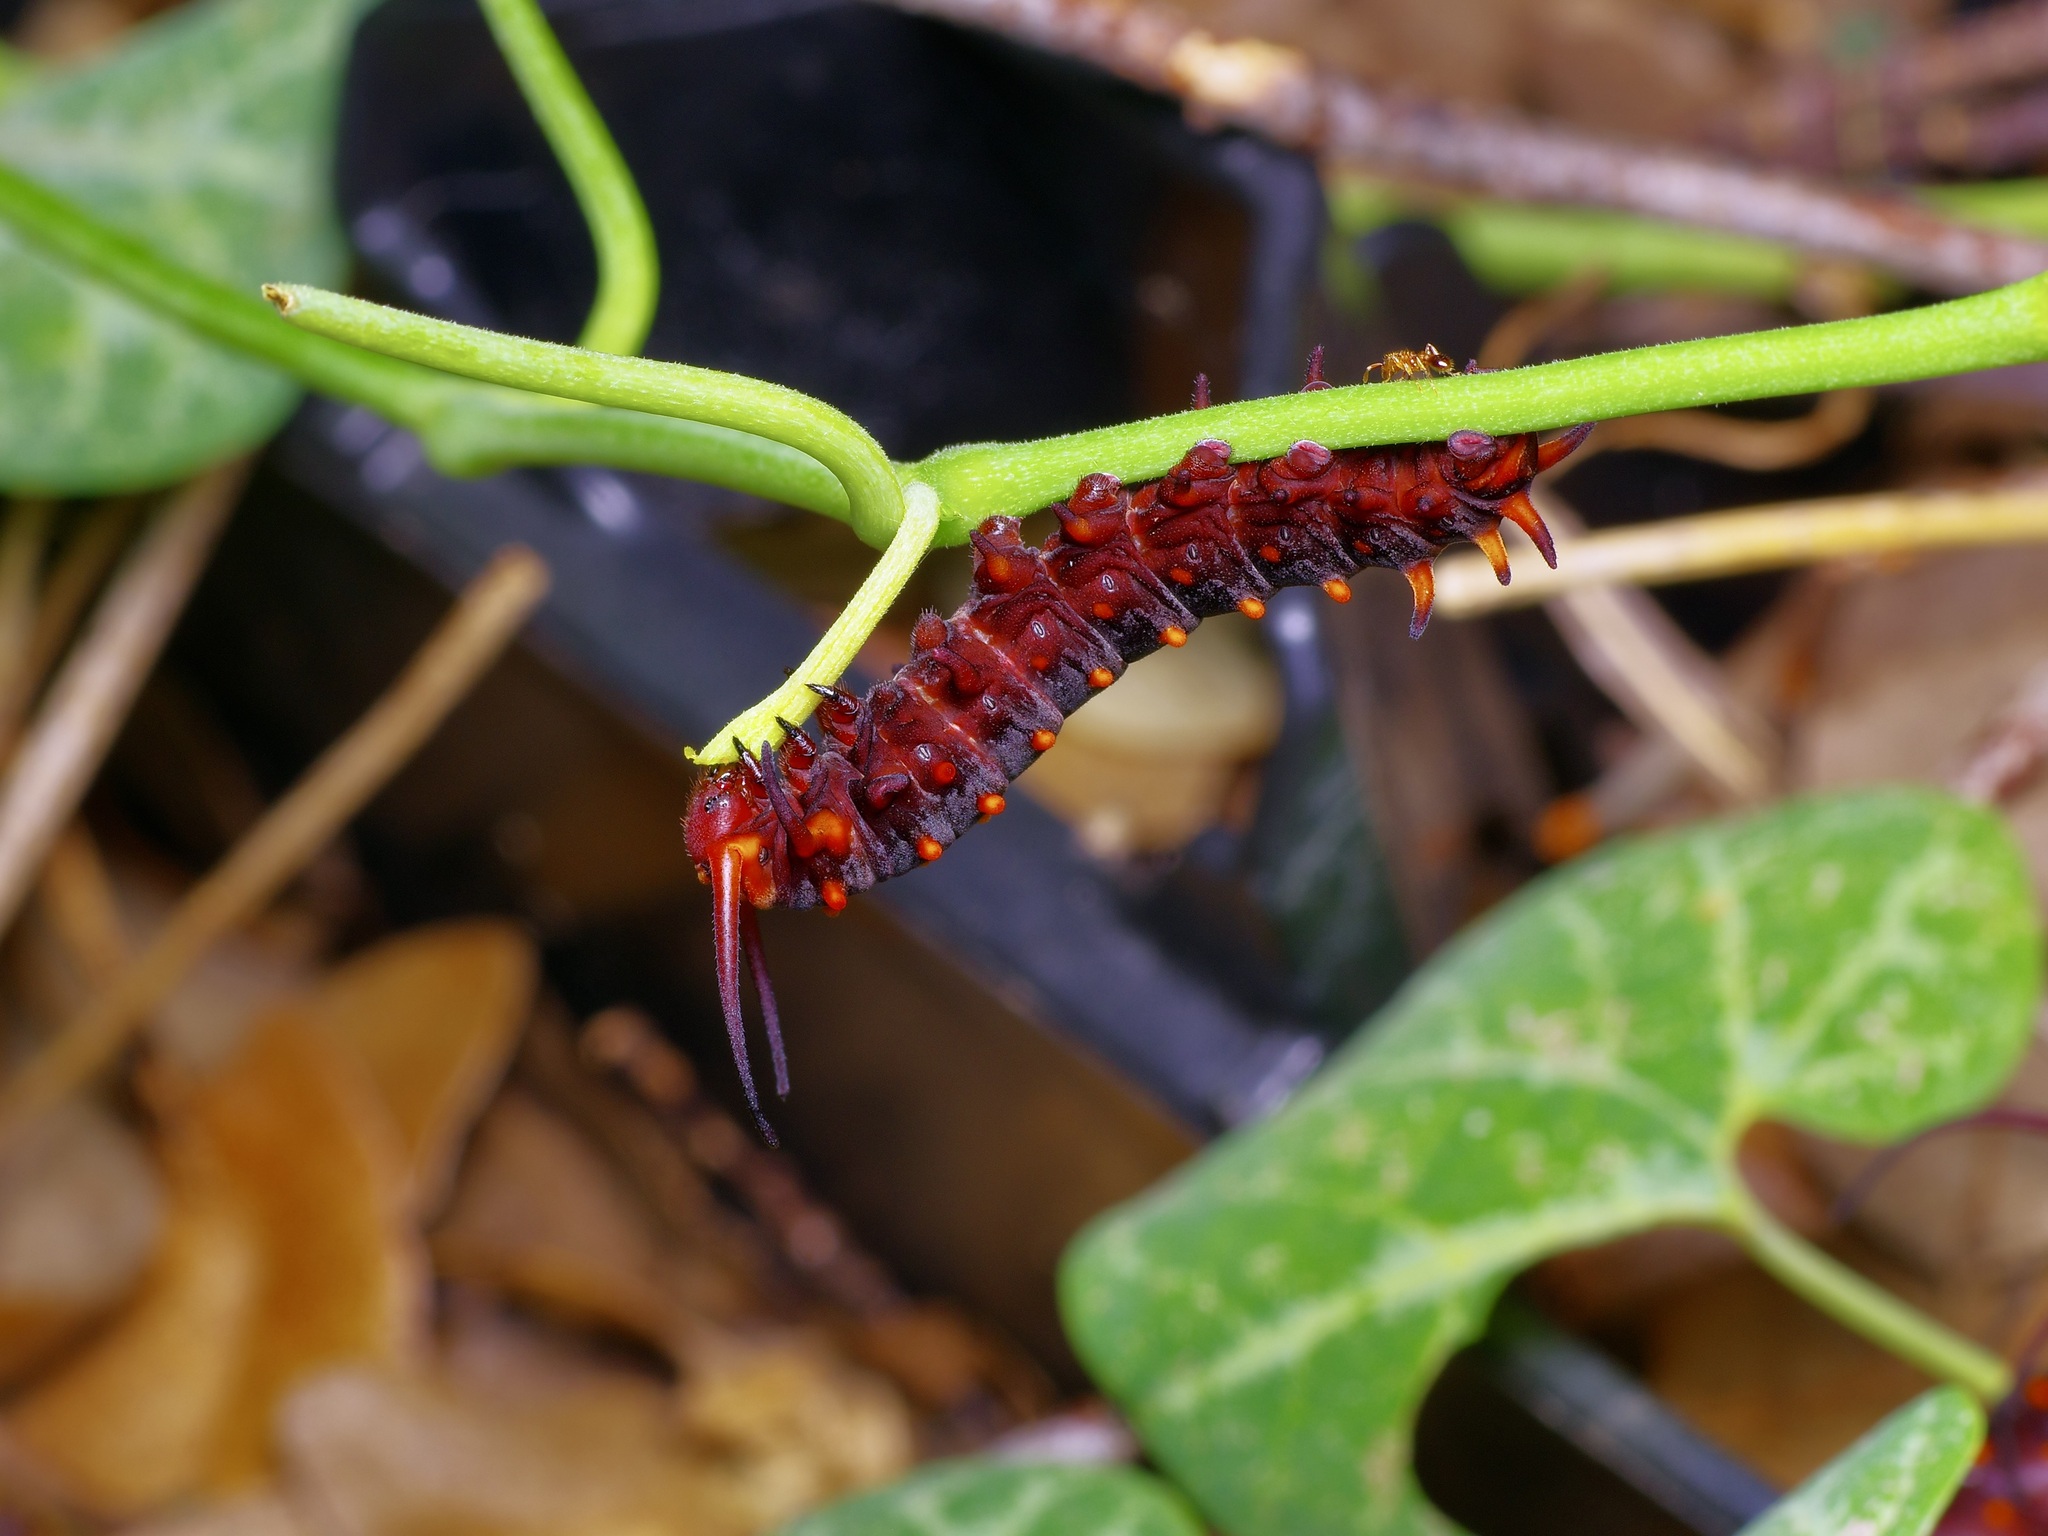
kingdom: Animalia
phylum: Arthropoda
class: Insecta
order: Lepidoptera
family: Papilionidae
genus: Battus
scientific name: Battus philenor
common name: Pipevine swallowtail
